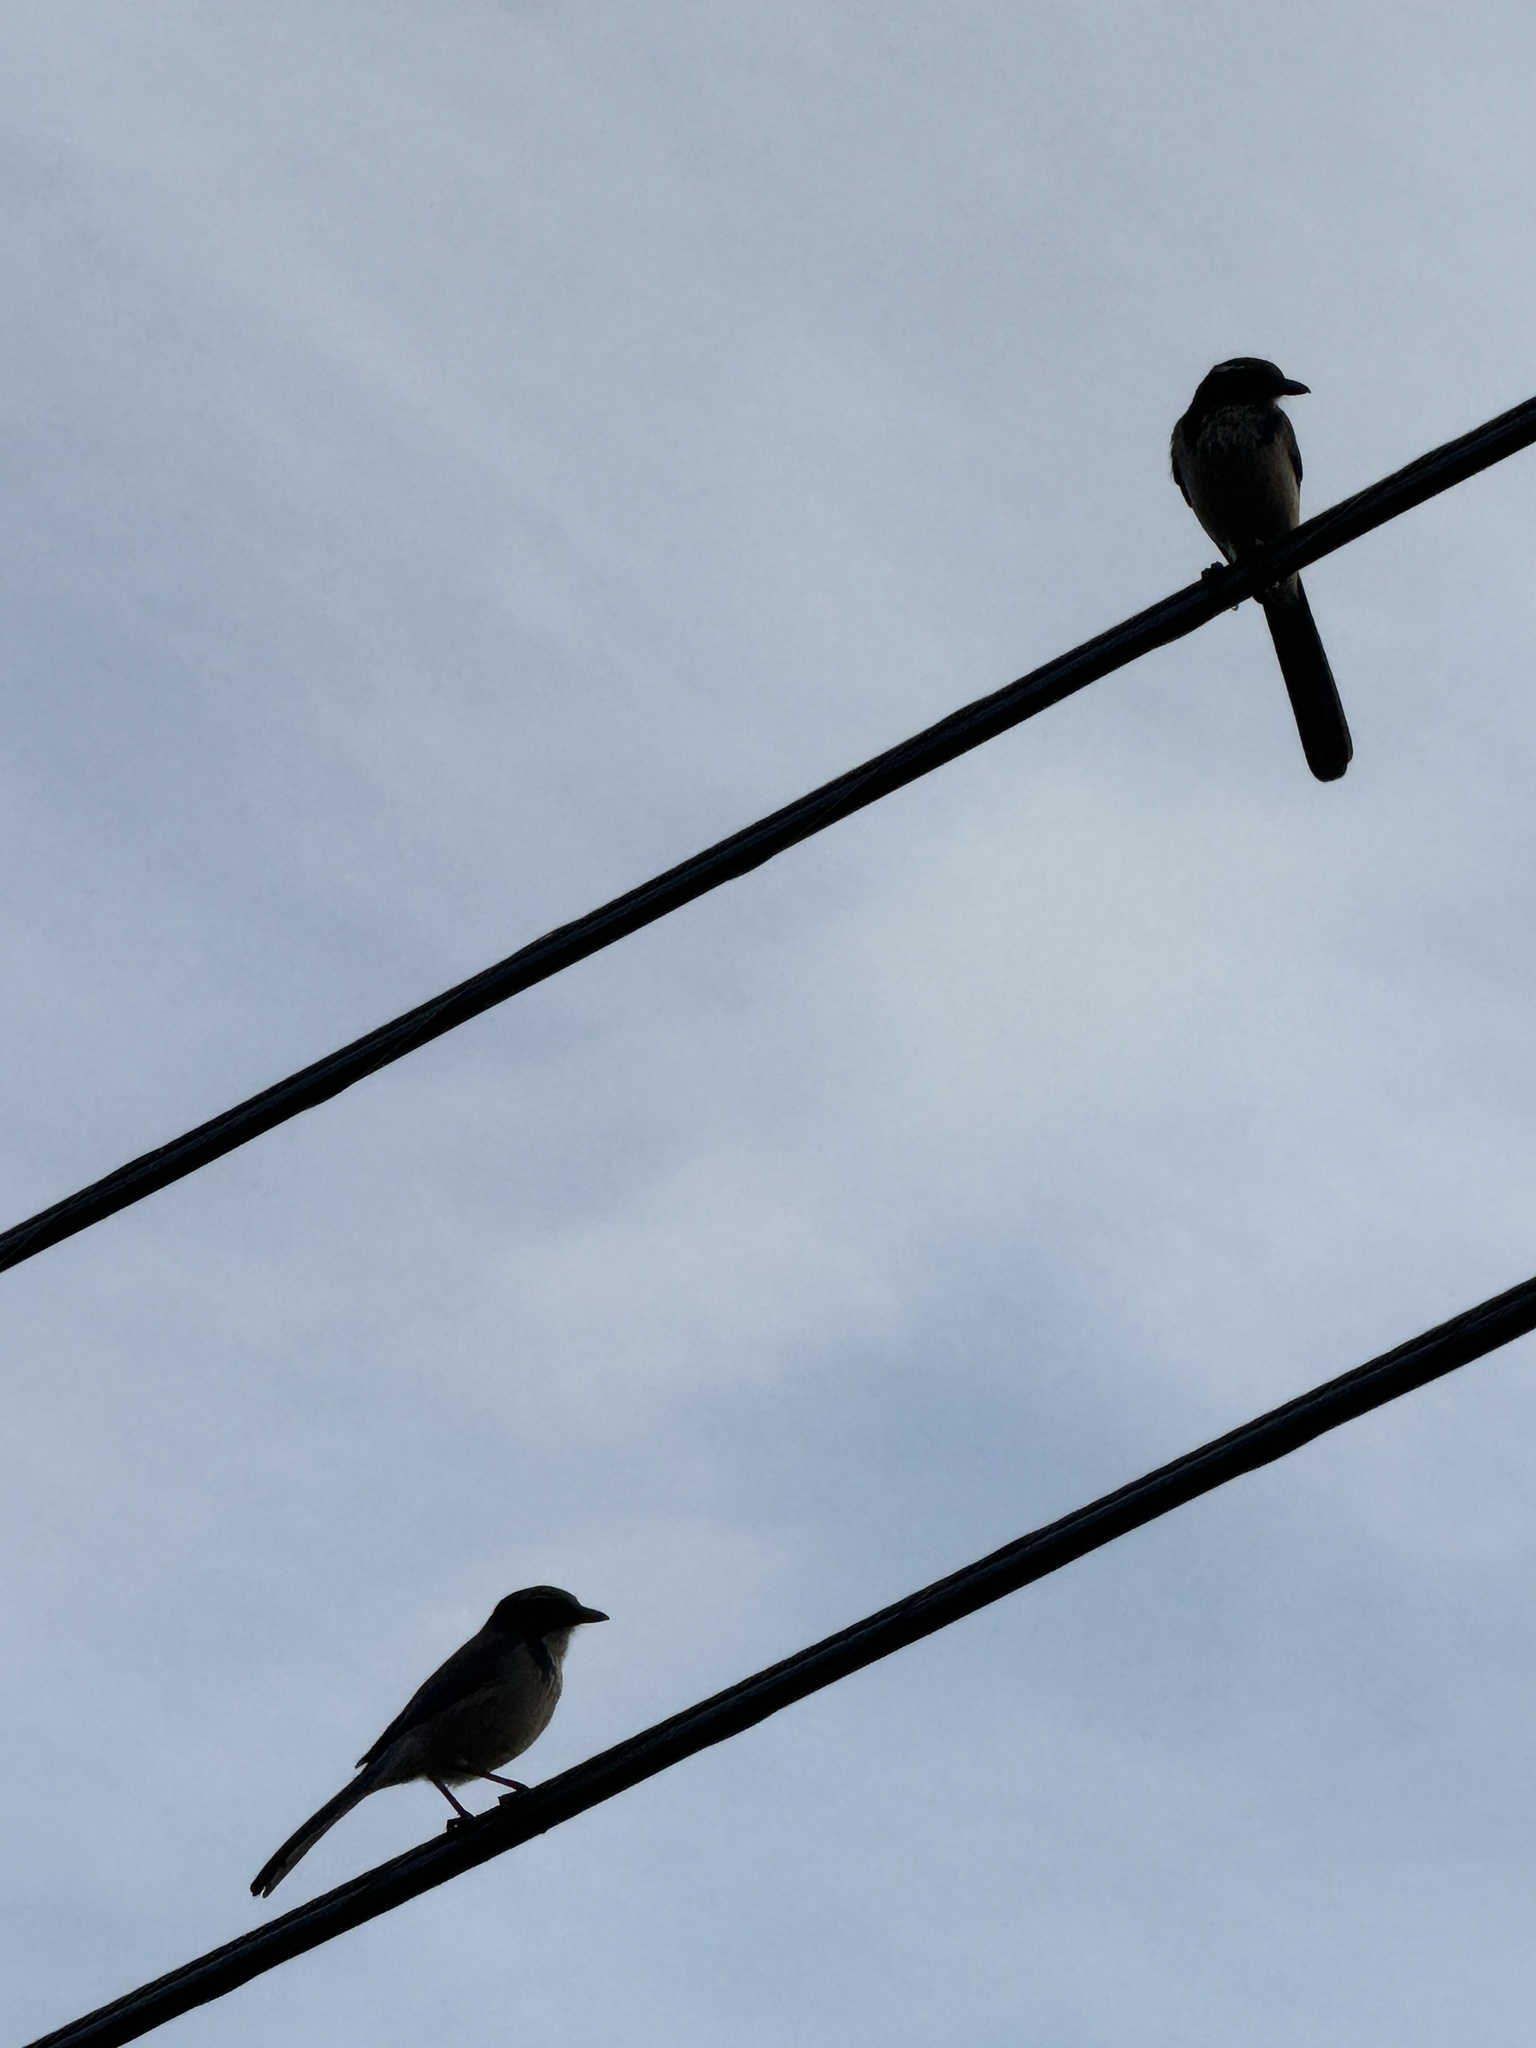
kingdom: Animalia
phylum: Chordata
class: Aves
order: Passeriformes
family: Corvidae
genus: Aphelocoma
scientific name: Aphelocoma californica
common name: California scrub-jay
